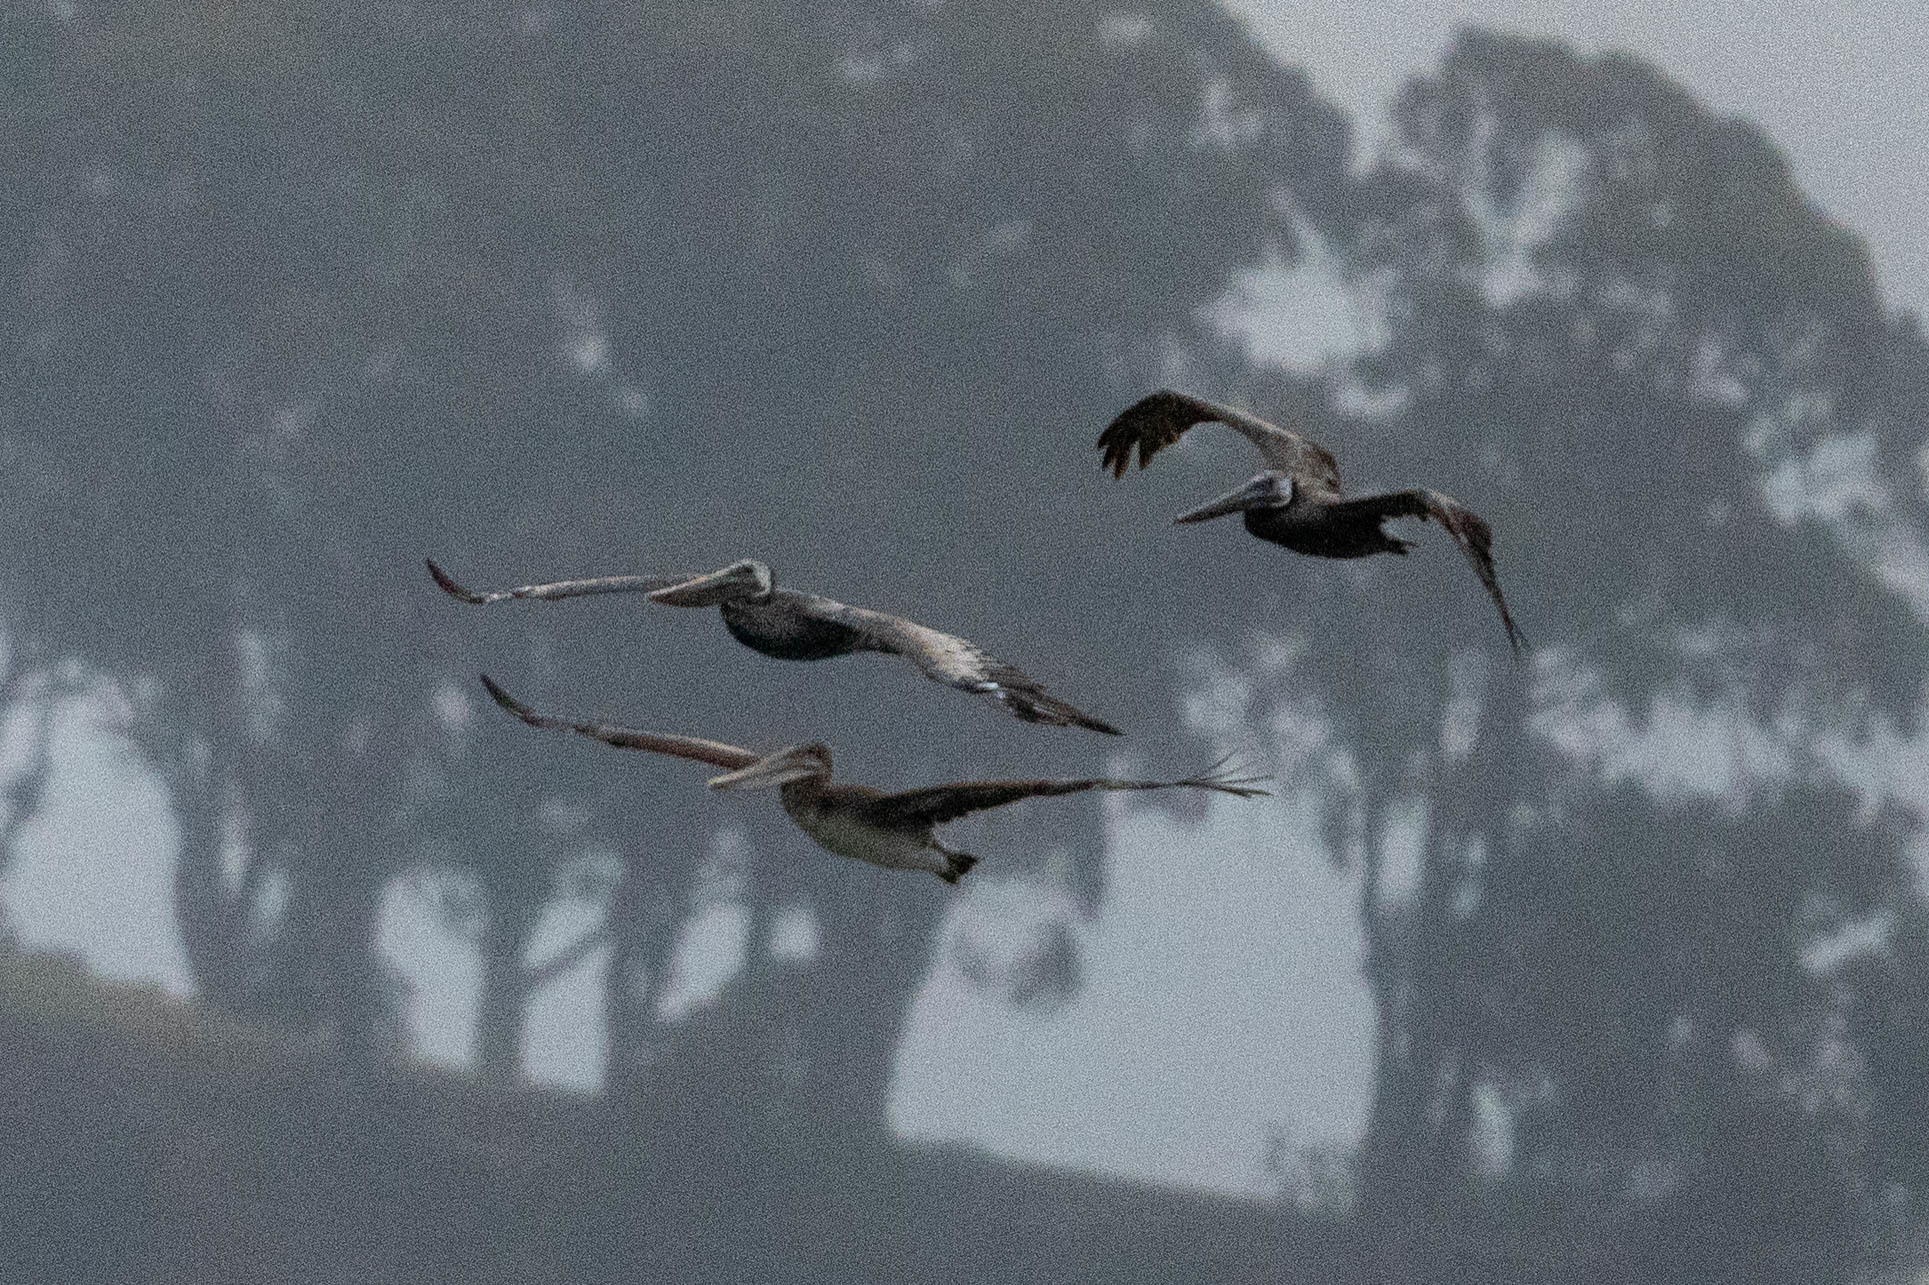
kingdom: Animalia
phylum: Chordata
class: Aves
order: Pelecaniformes
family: Pelecanidae
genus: Pelecanus
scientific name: Pelecanus occidentalis
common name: Brown pelican
